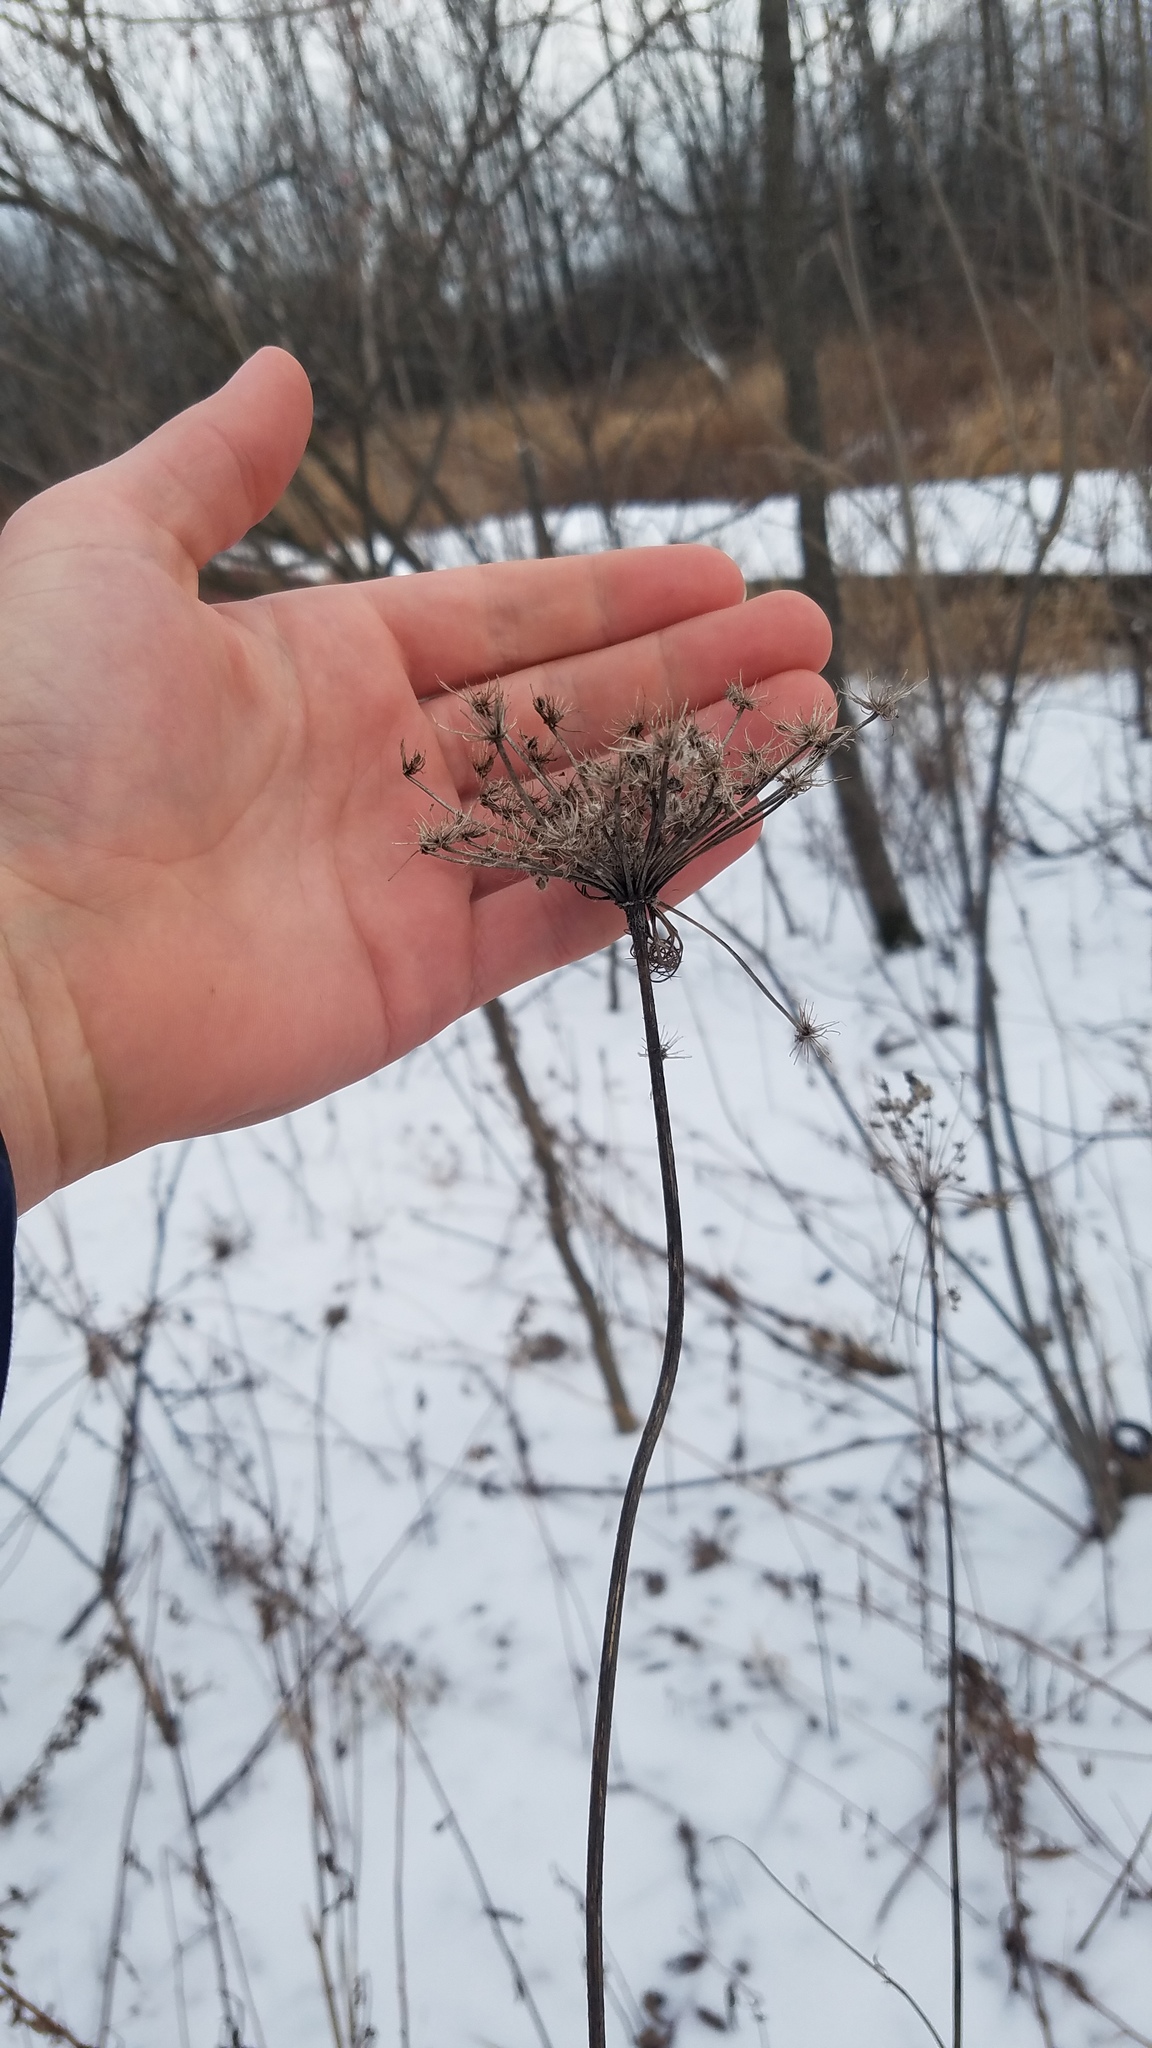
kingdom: Plantae
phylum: Tracheophyta
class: Magnoliopsida
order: Apiales
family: Apiaceae
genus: Daucus
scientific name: Daucus carota
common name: Wild carrot
